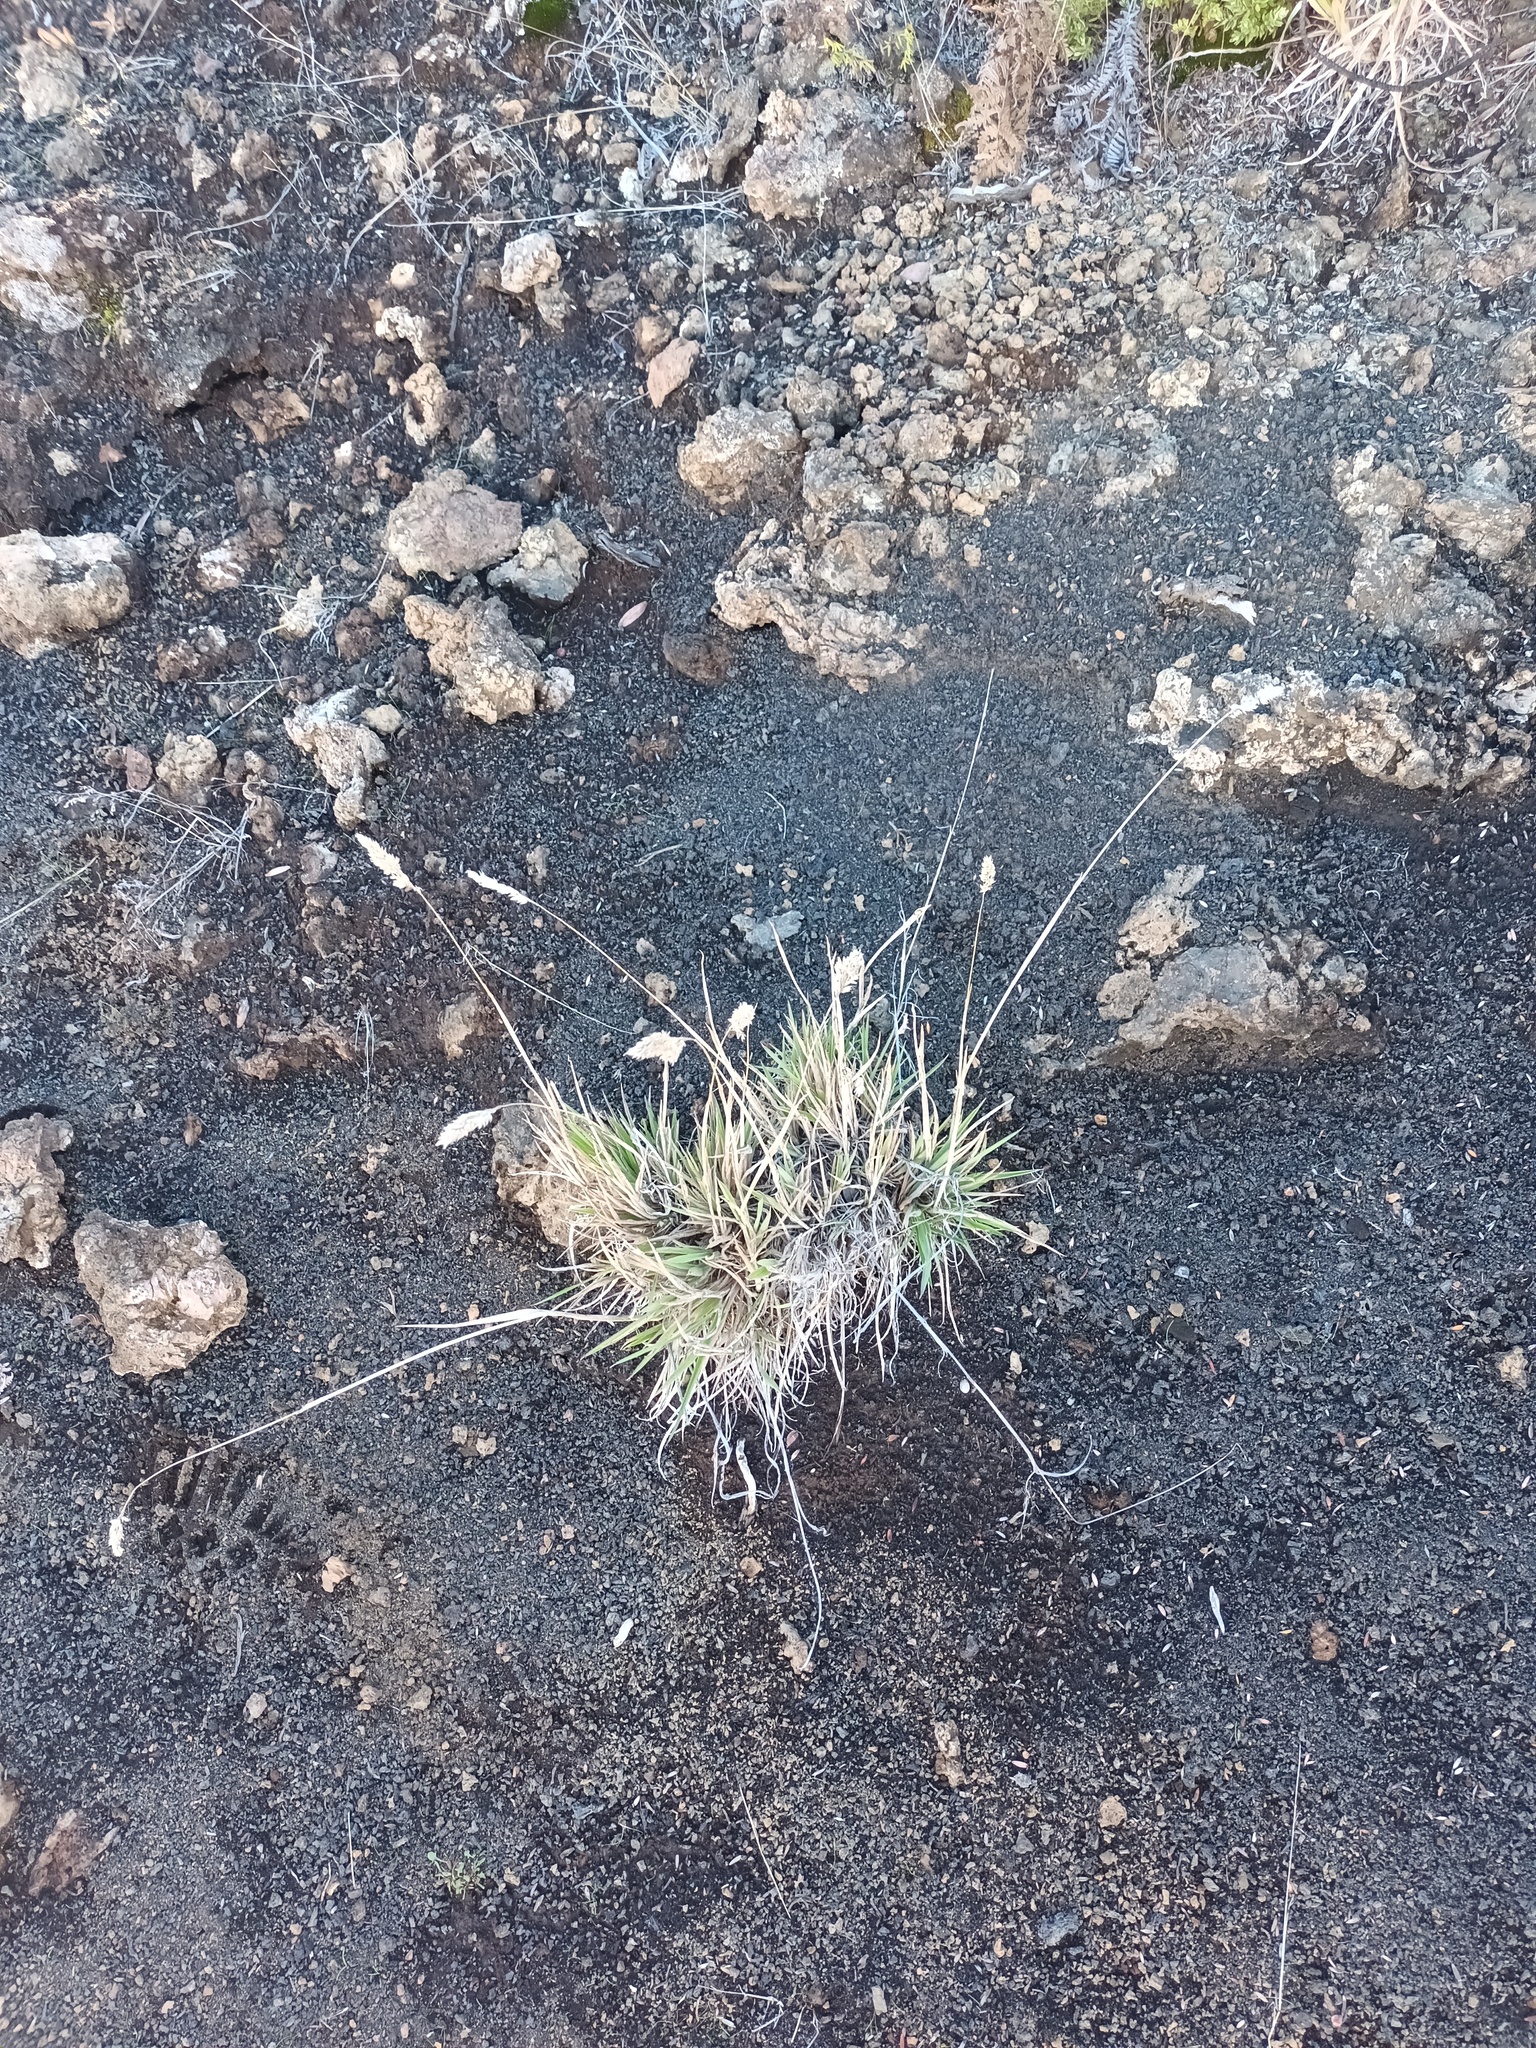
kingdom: Plantae
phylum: Tracheophyta
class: Liliopsida
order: Poales
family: Poaceae
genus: Holcus
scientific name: Holcus lanatus
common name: Yorkshire-fog
